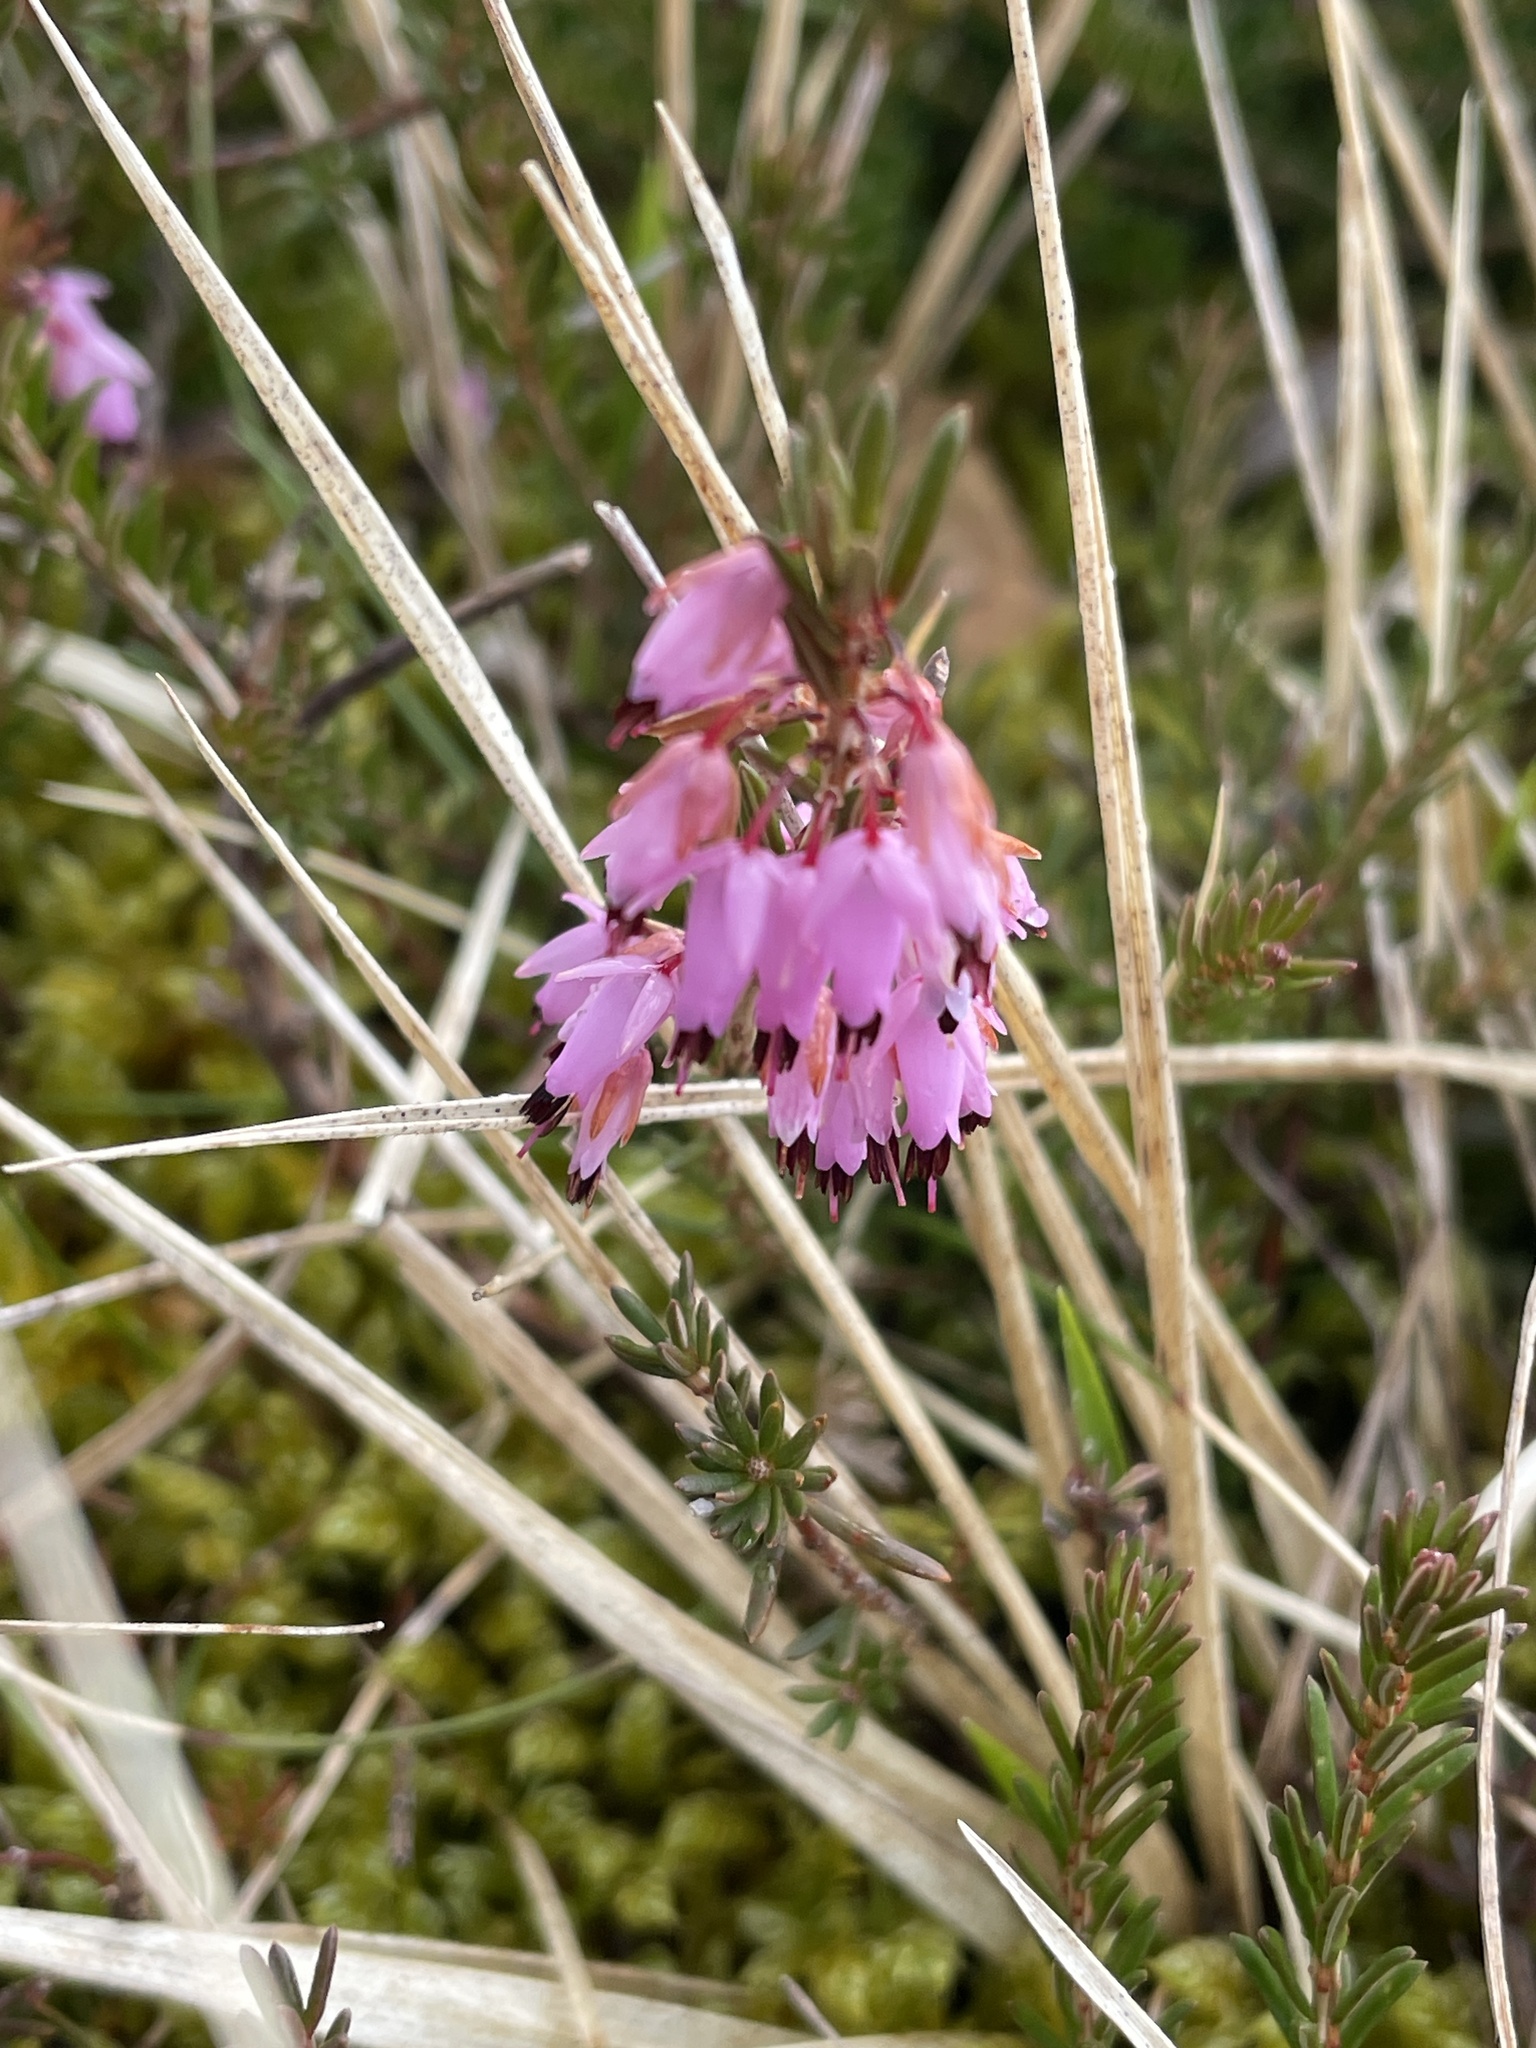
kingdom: Plantae
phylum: Tracheophyta
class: Magnoliopsida
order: Ericales
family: Ericaceae
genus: Erica
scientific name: Erica carnea
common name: Winter heath
